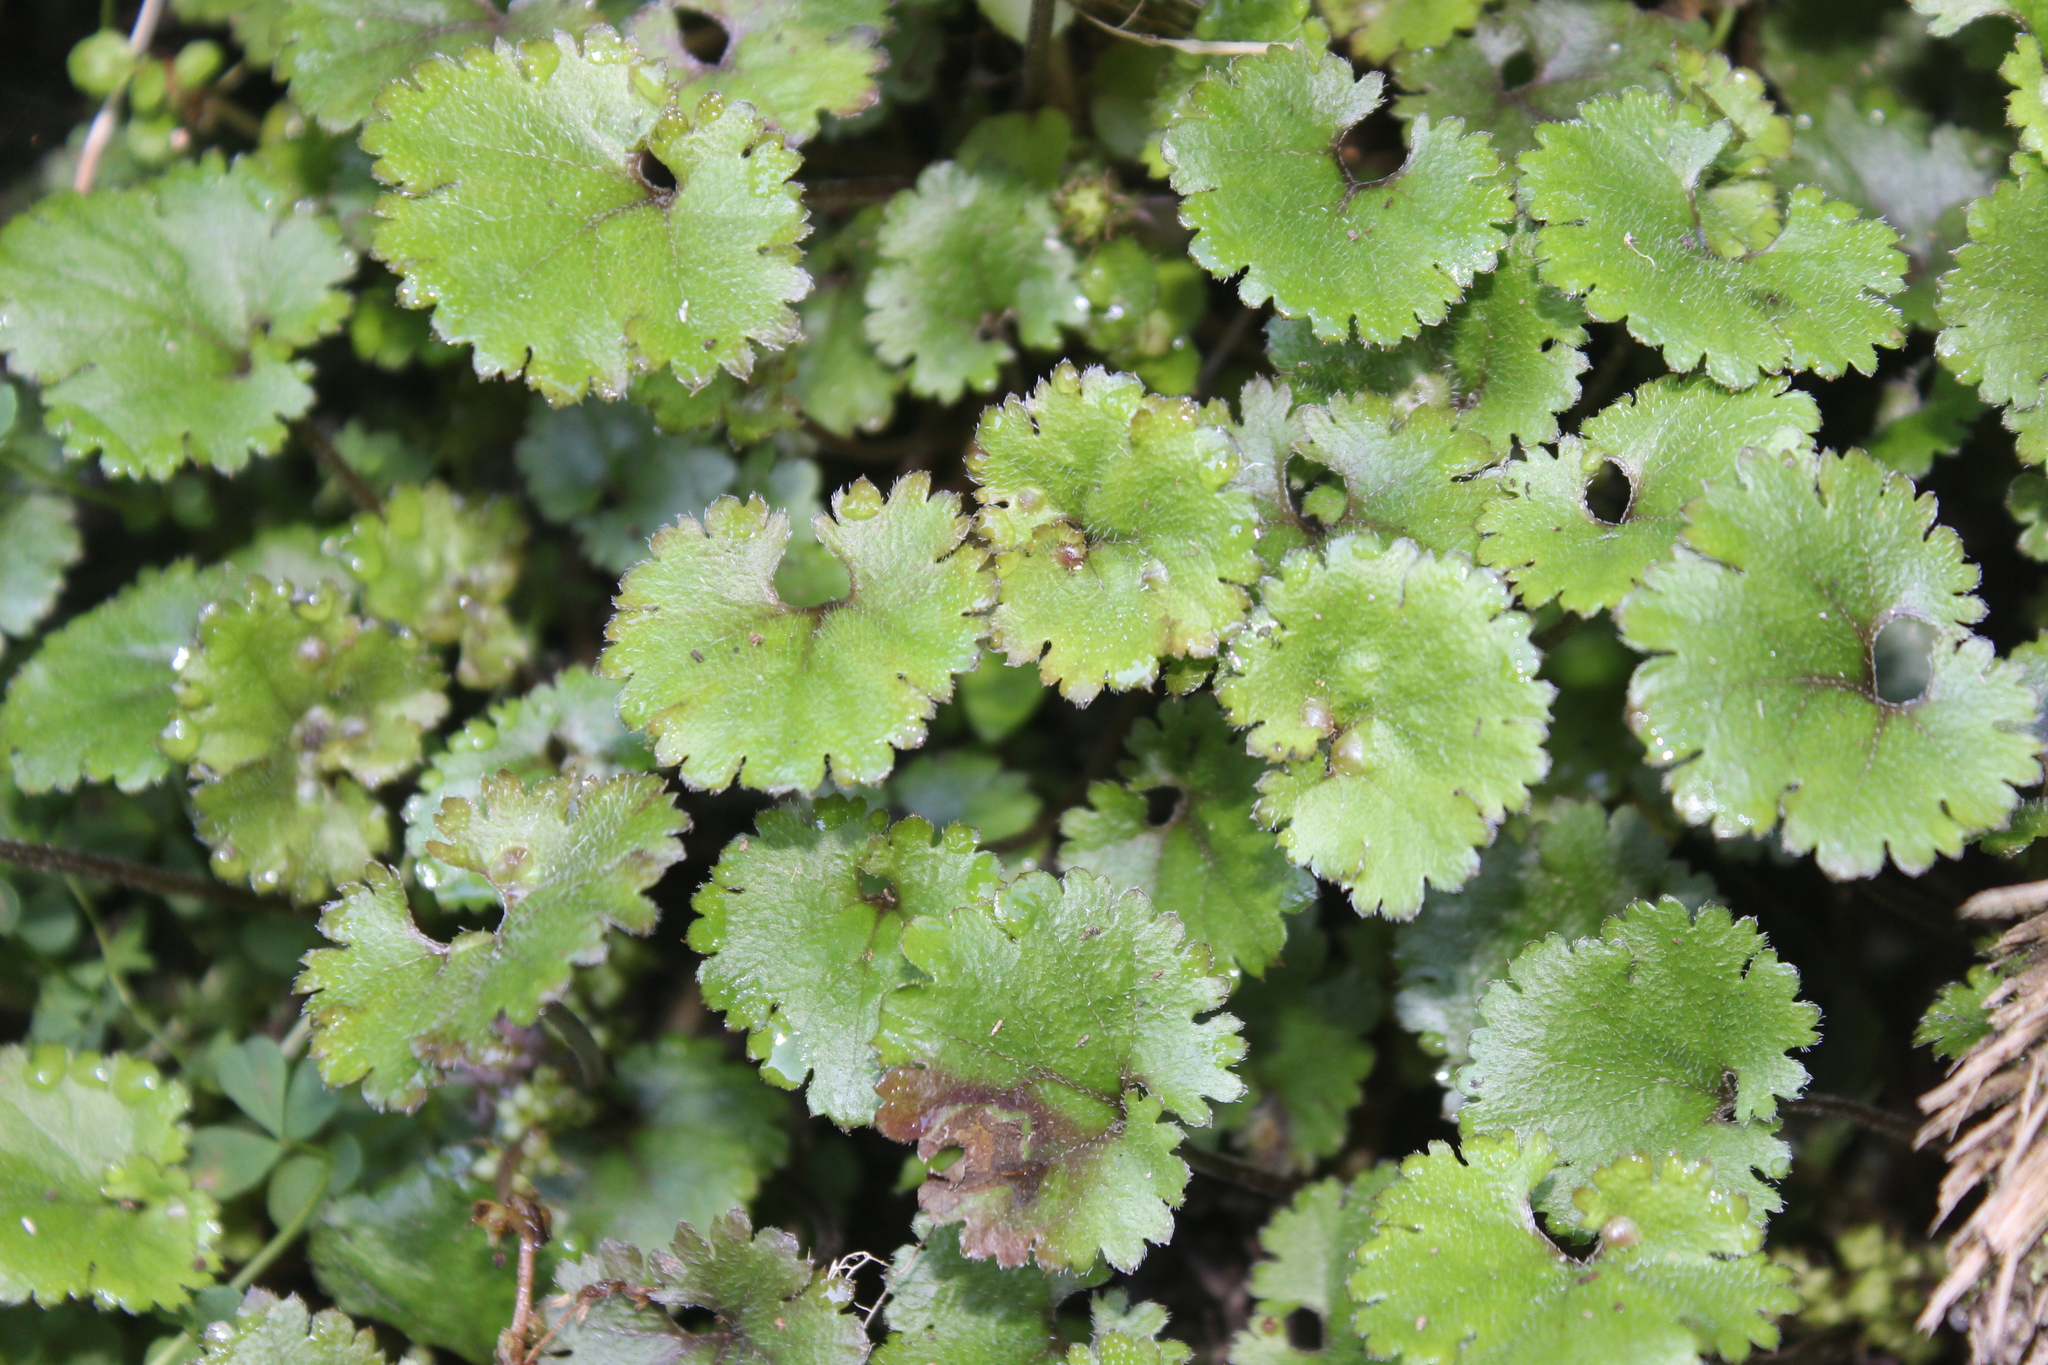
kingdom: Plantae
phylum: Tracheophyta
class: Magnoliopsida
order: Gunnerales
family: Gunneraceae
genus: Gunnera
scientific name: Gunnera monoica
